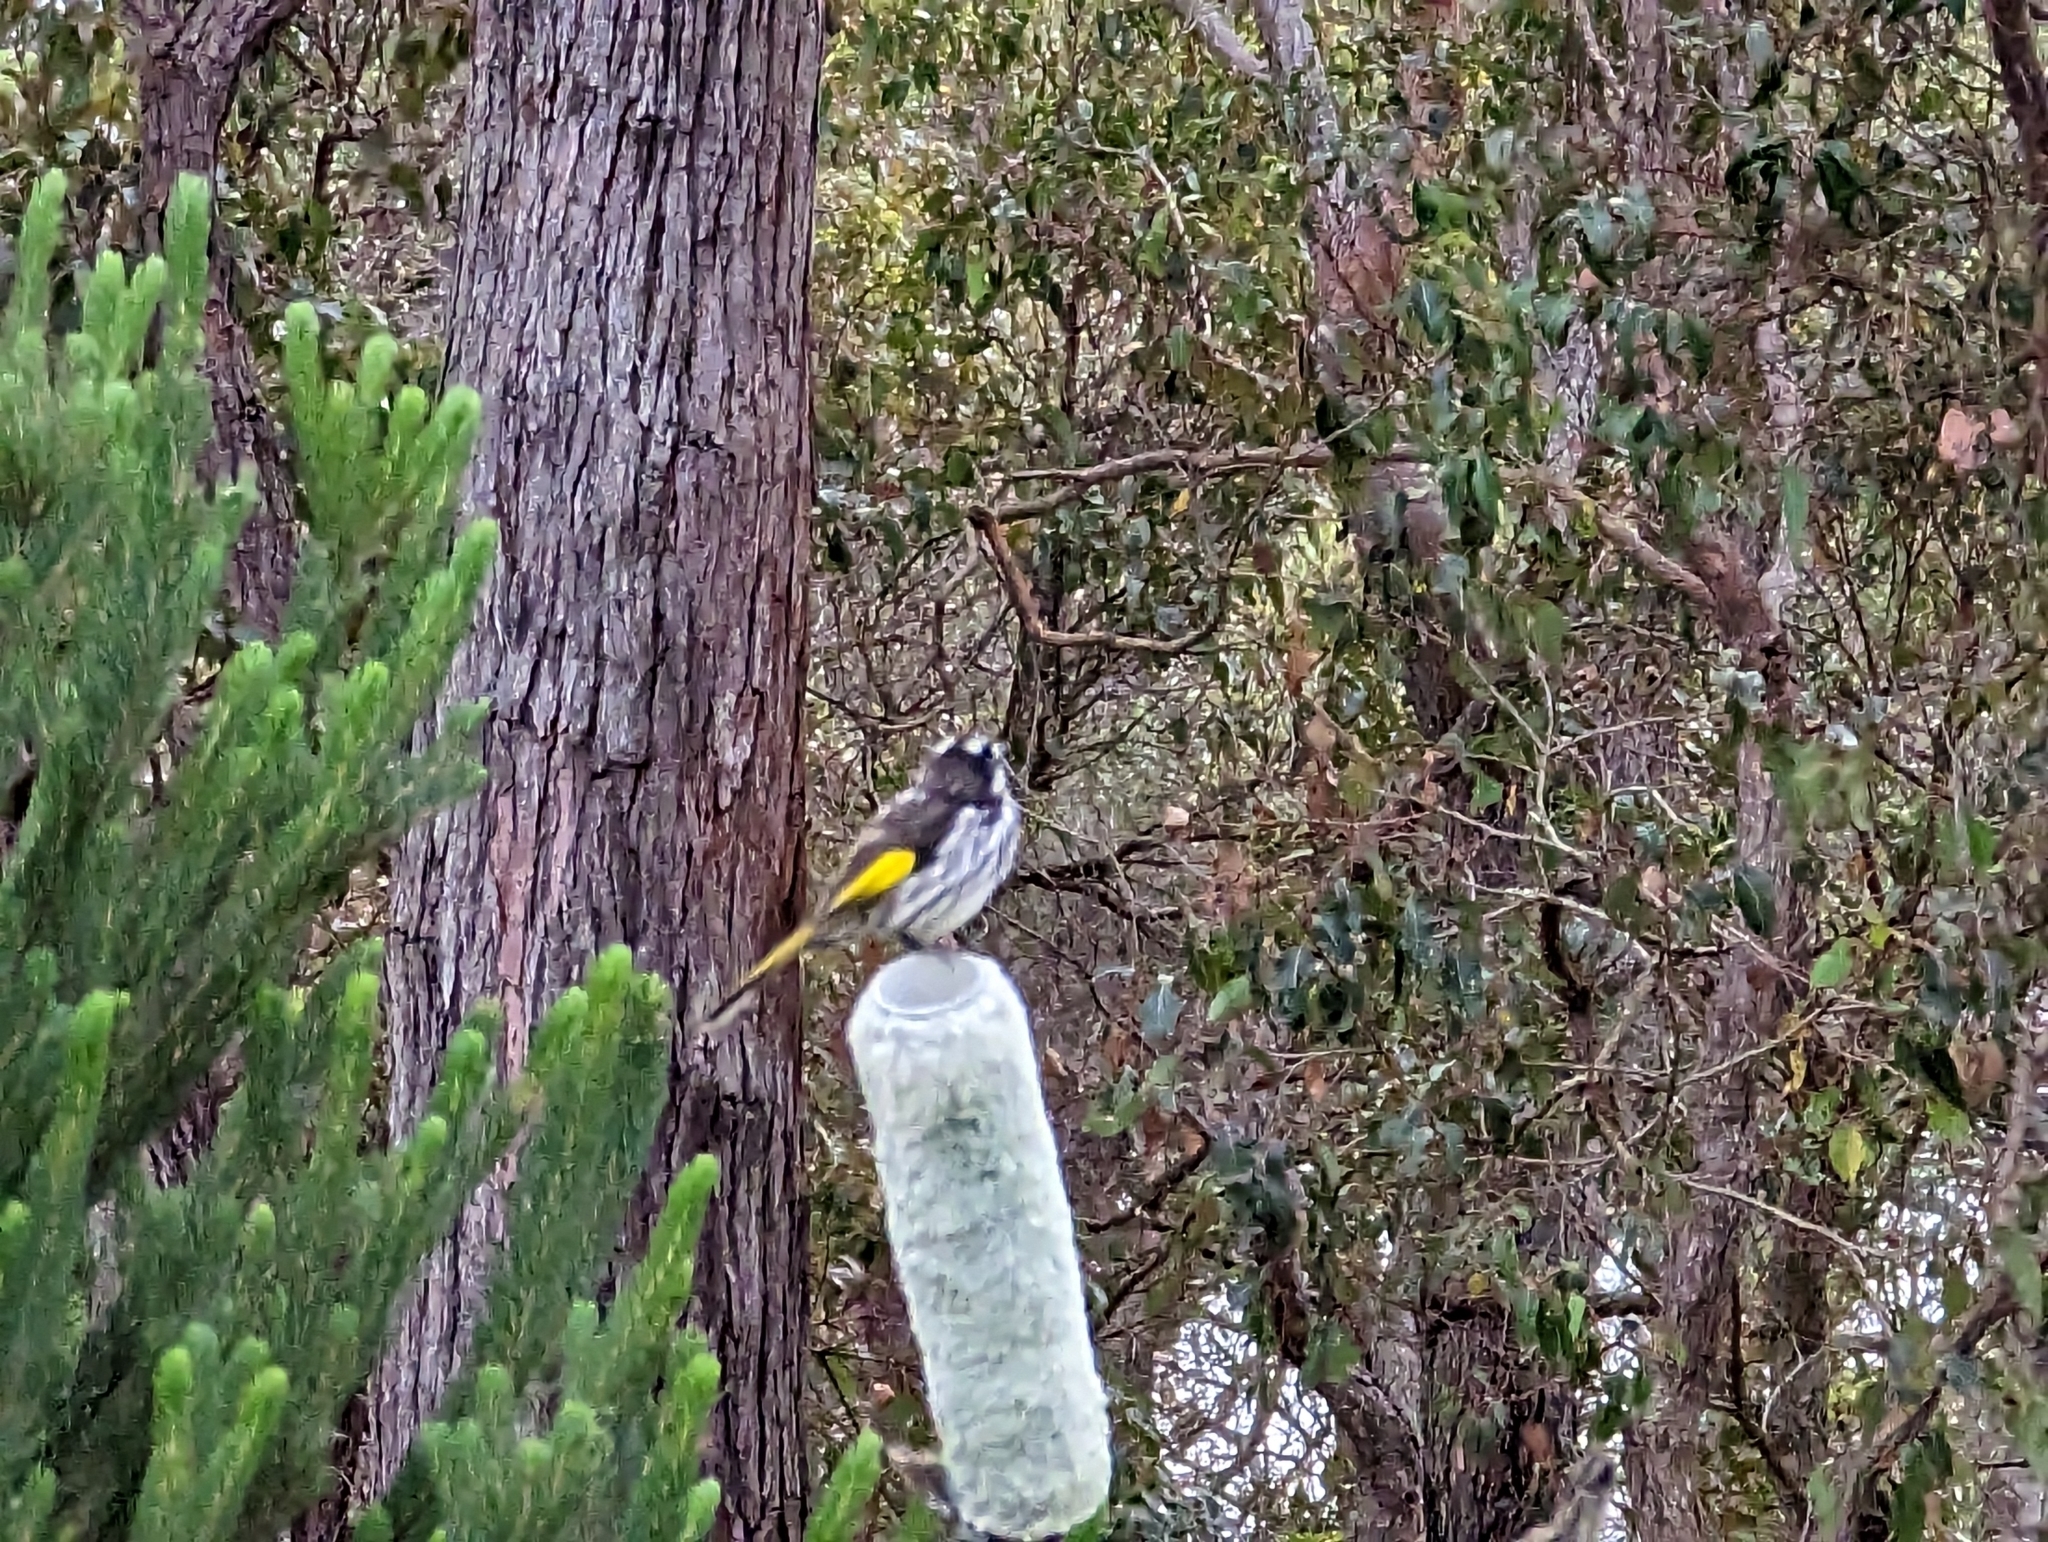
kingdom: Animalia
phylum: Chordata
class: Aves
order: Passeriformes
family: Meliphagidae
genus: Phylidonyris
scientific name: Phylidonyris novaehollandiae
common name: New holland honeyeater
